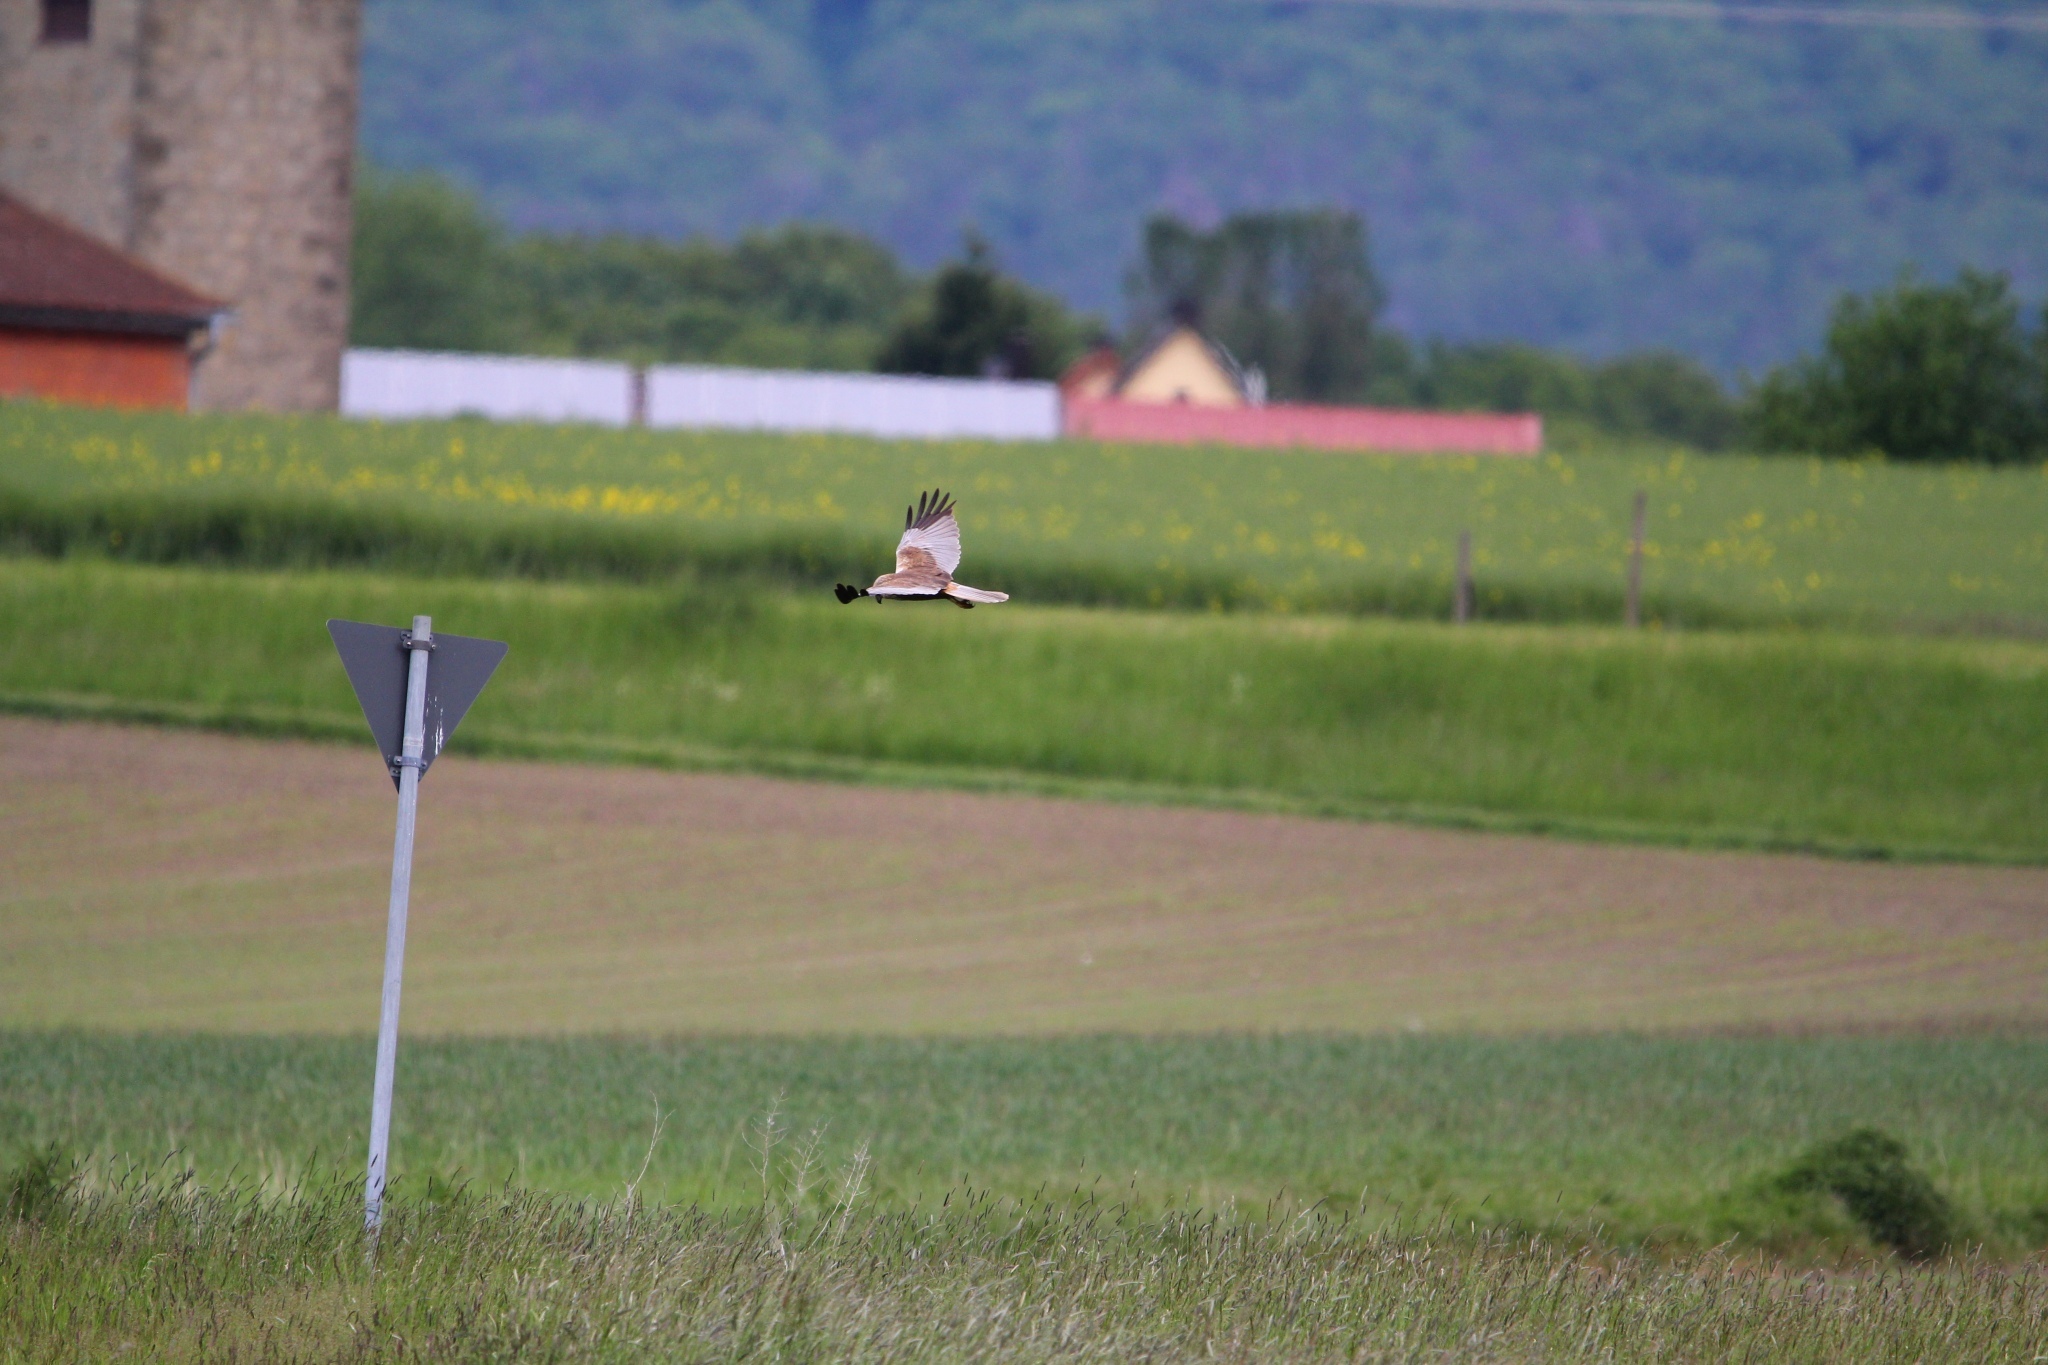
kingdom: Animalia
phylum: Chordata
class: Aves
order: Accipitriformes
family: Accipitridae
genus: Circus
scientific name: Circus aeruginosus
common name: Western marsh harrier
